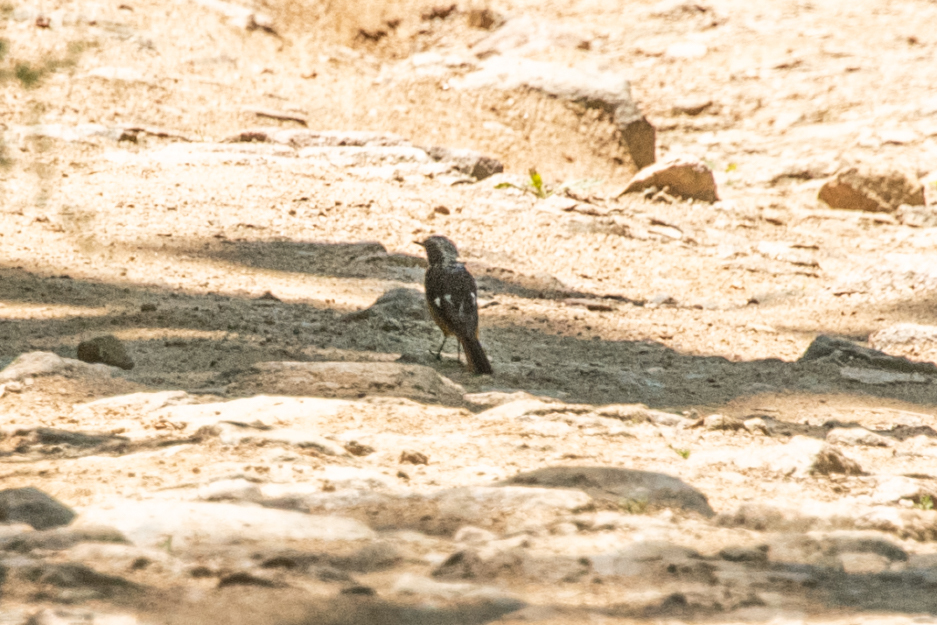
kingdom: Animalia
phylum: Chordata
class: Aves
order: Passeriformes
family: Muscicapidae
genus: Phoenicurus
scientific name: Phoenicurus auroreus
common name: Daurian redstart
